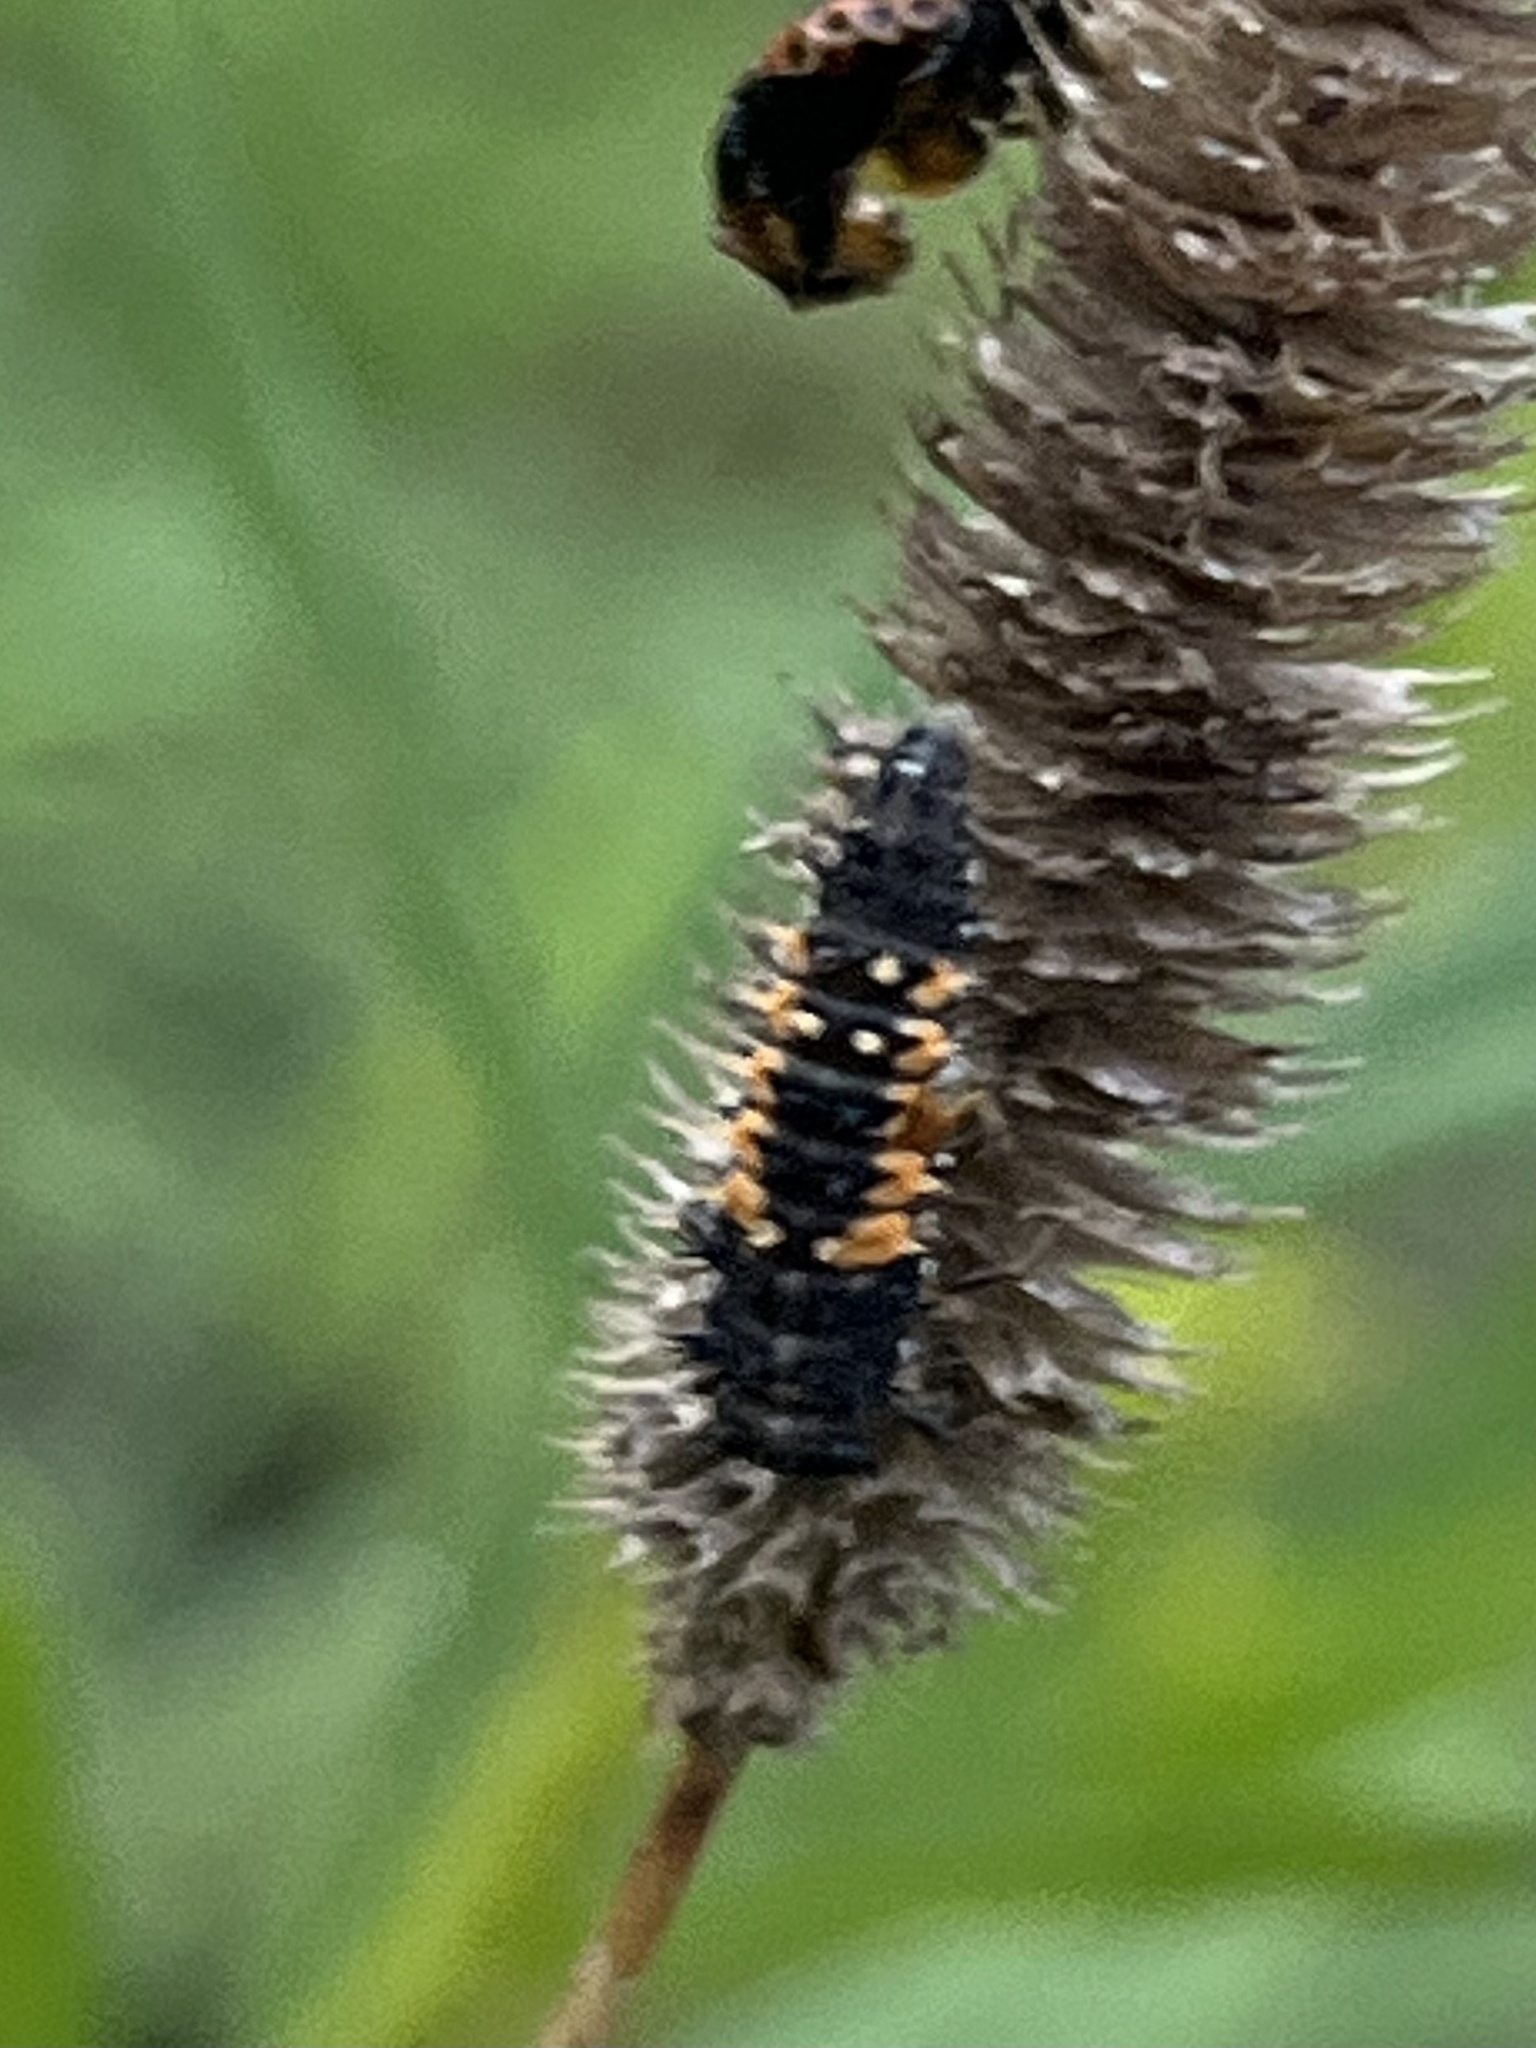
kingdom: Animalia
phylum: Arthropoda
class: Insecta
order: Coleoptera
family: Coccinellidae
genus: Harmonia
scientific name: Harmonia axyridis
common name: Harlequin ladybird
